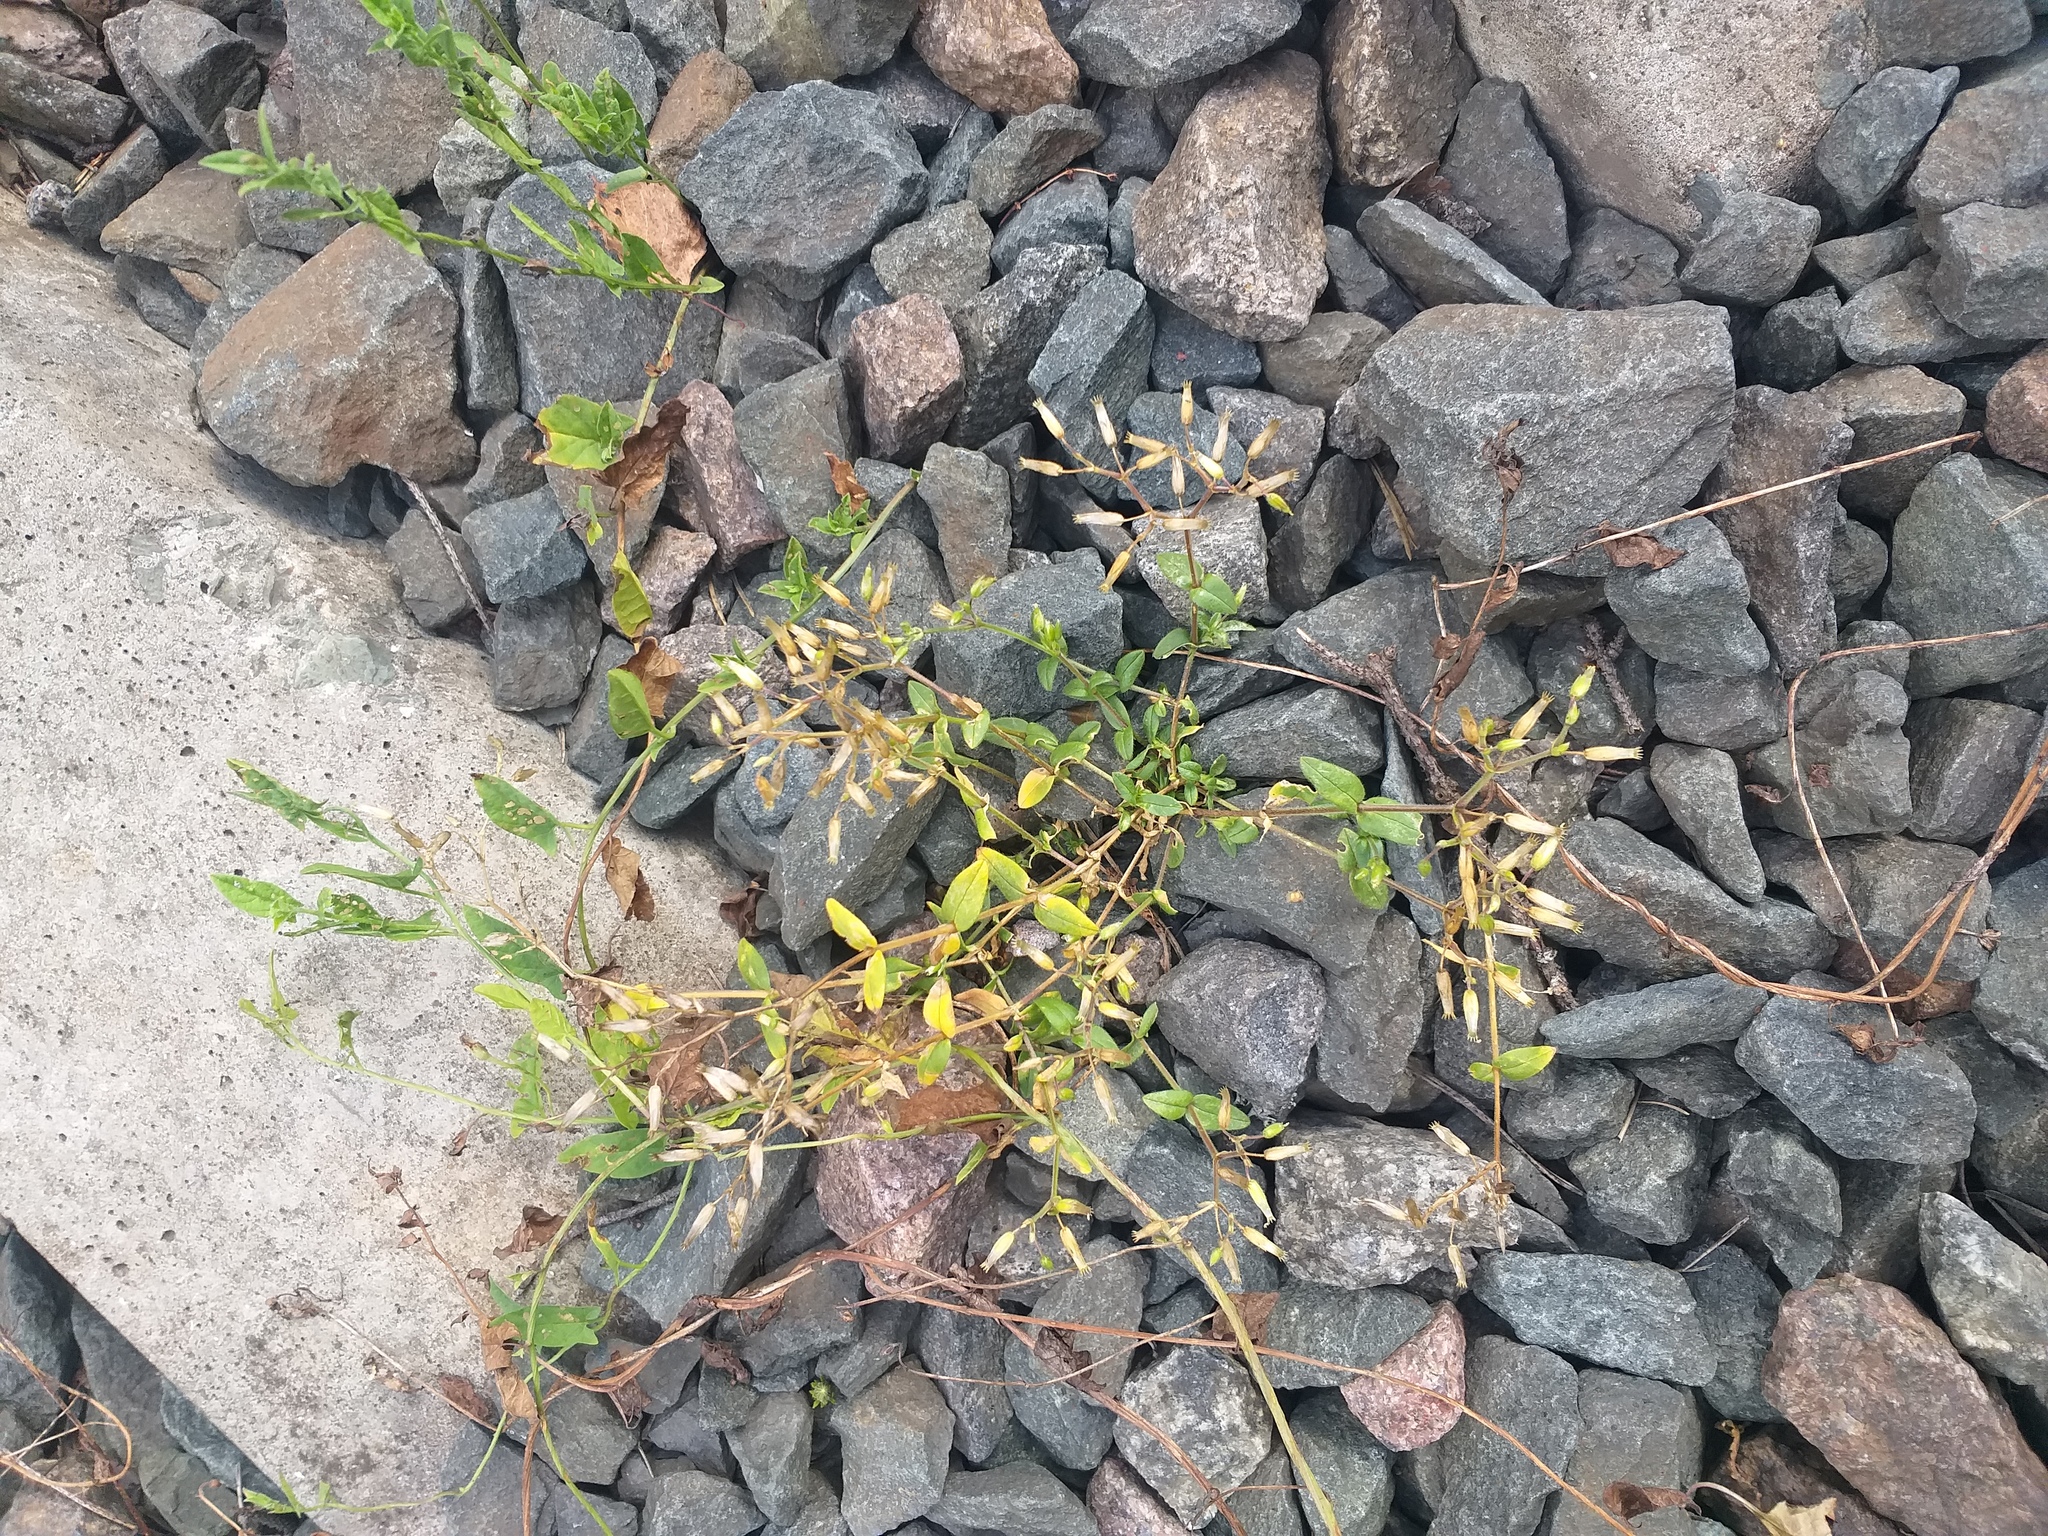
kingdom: Plantae
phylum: Tracheophyta
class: Magnoliopsida
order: Caryophyllales
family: Caryophyllaceae
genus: Cerastium
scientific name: Cerastium holosteoides
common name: Big chickweed
